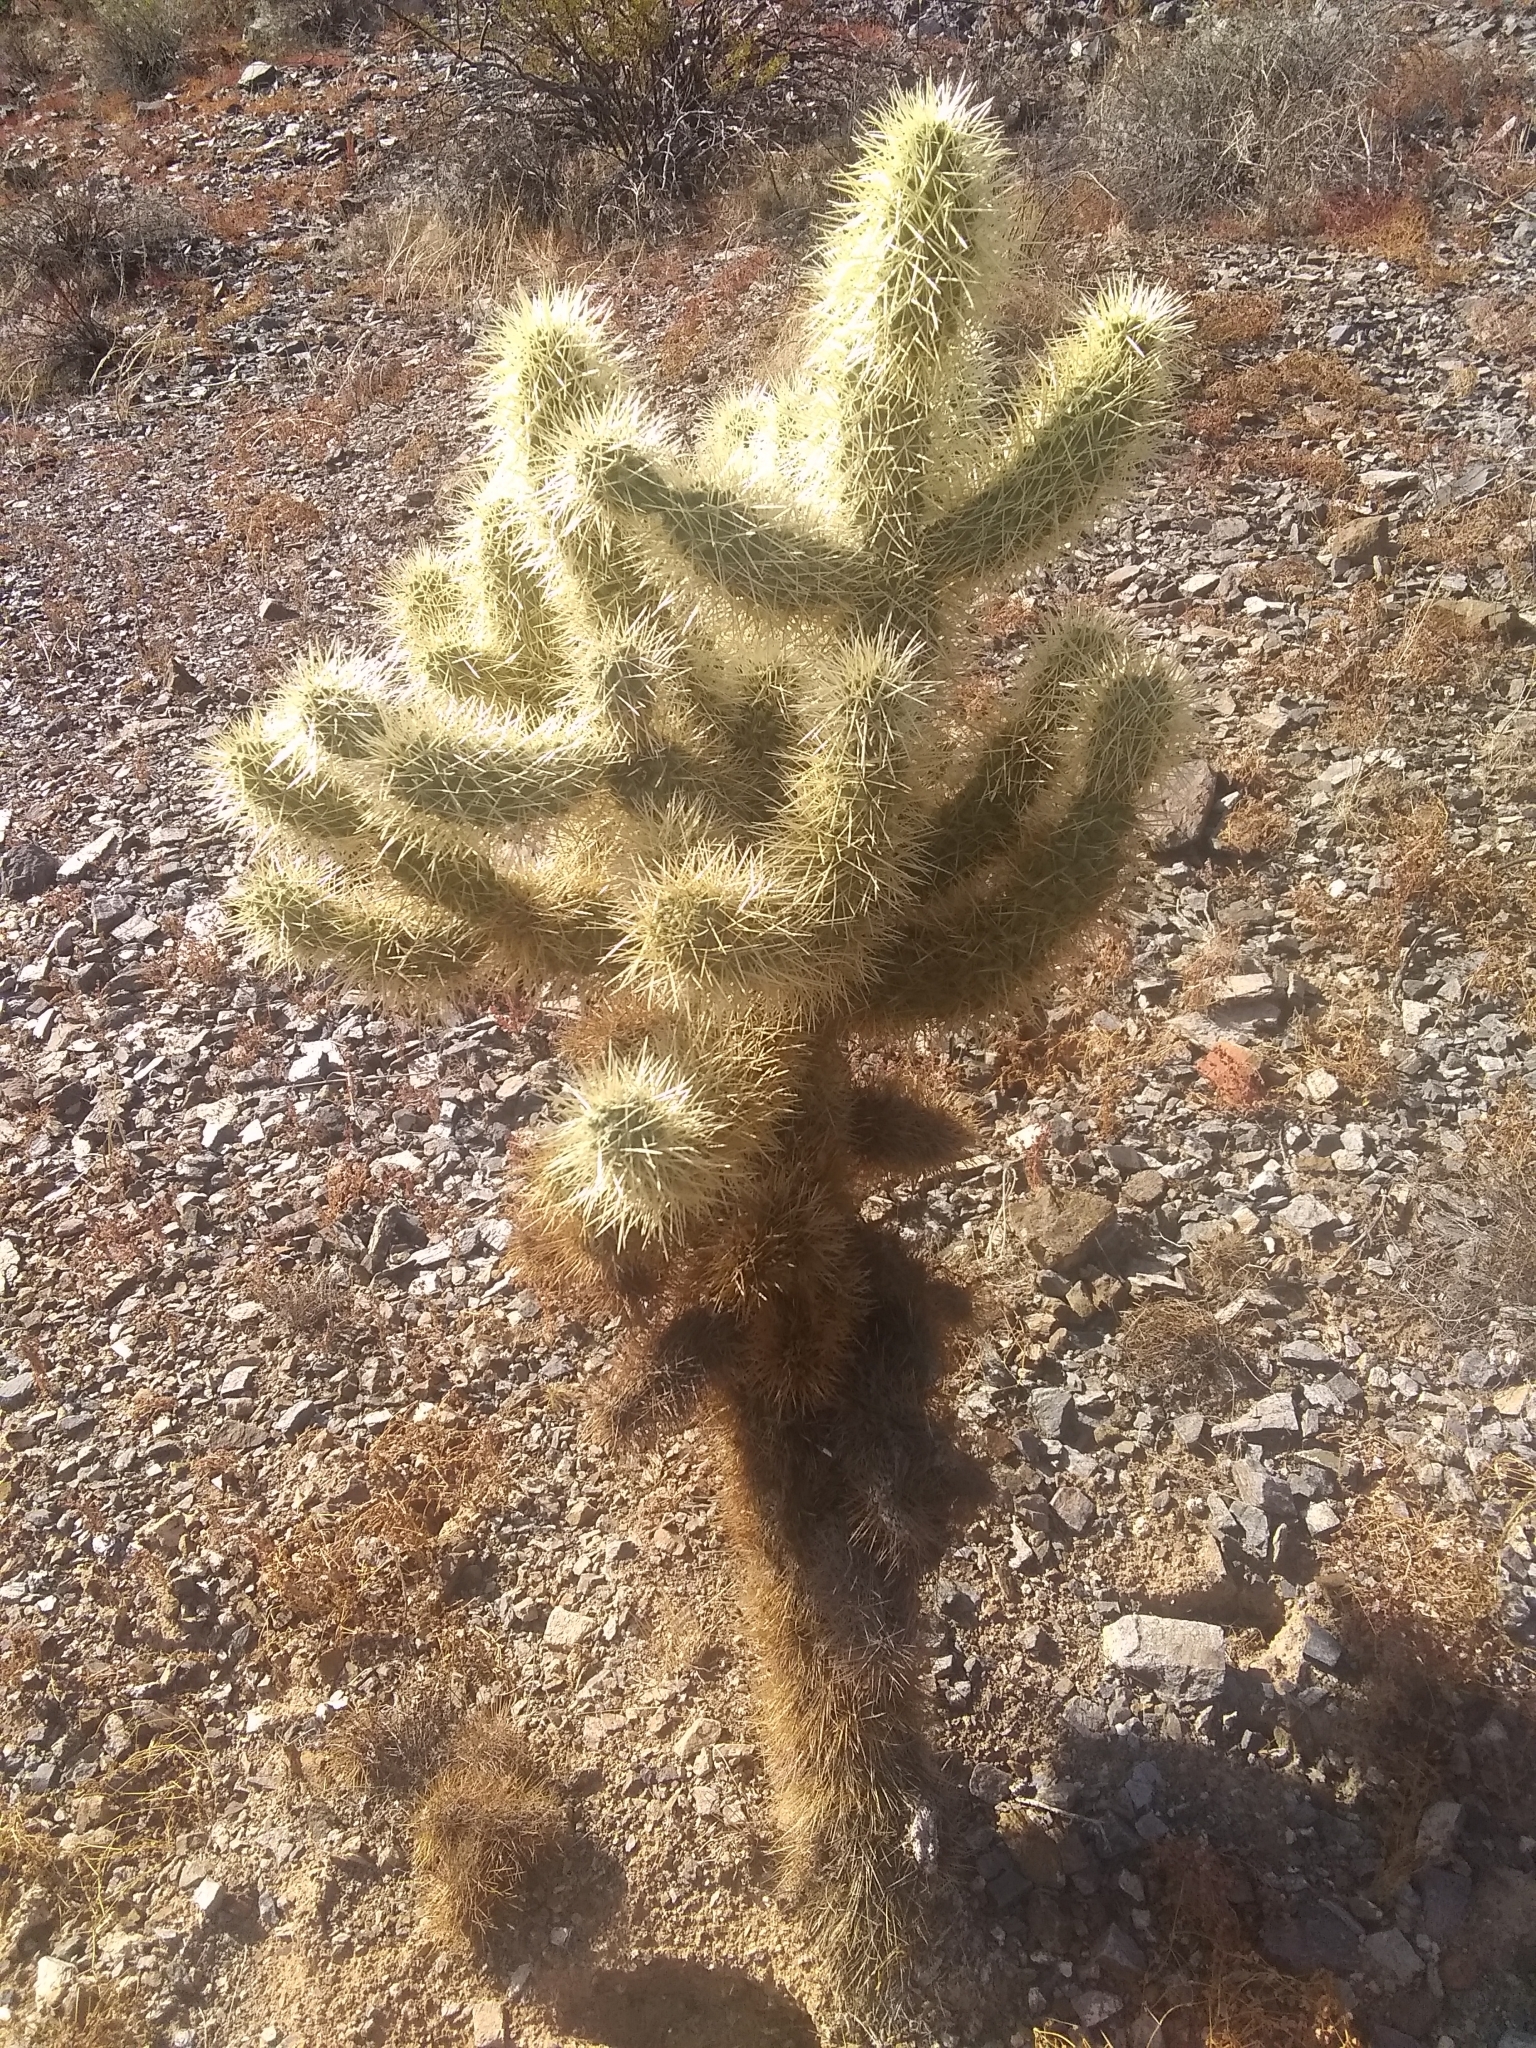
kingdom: Plantae
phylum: Tracheophyta
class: Magnoliopsida
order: Caryophyllales
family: Cactaceae
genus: Cylindropuntia
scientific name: Cylindropuntia fosbergii
